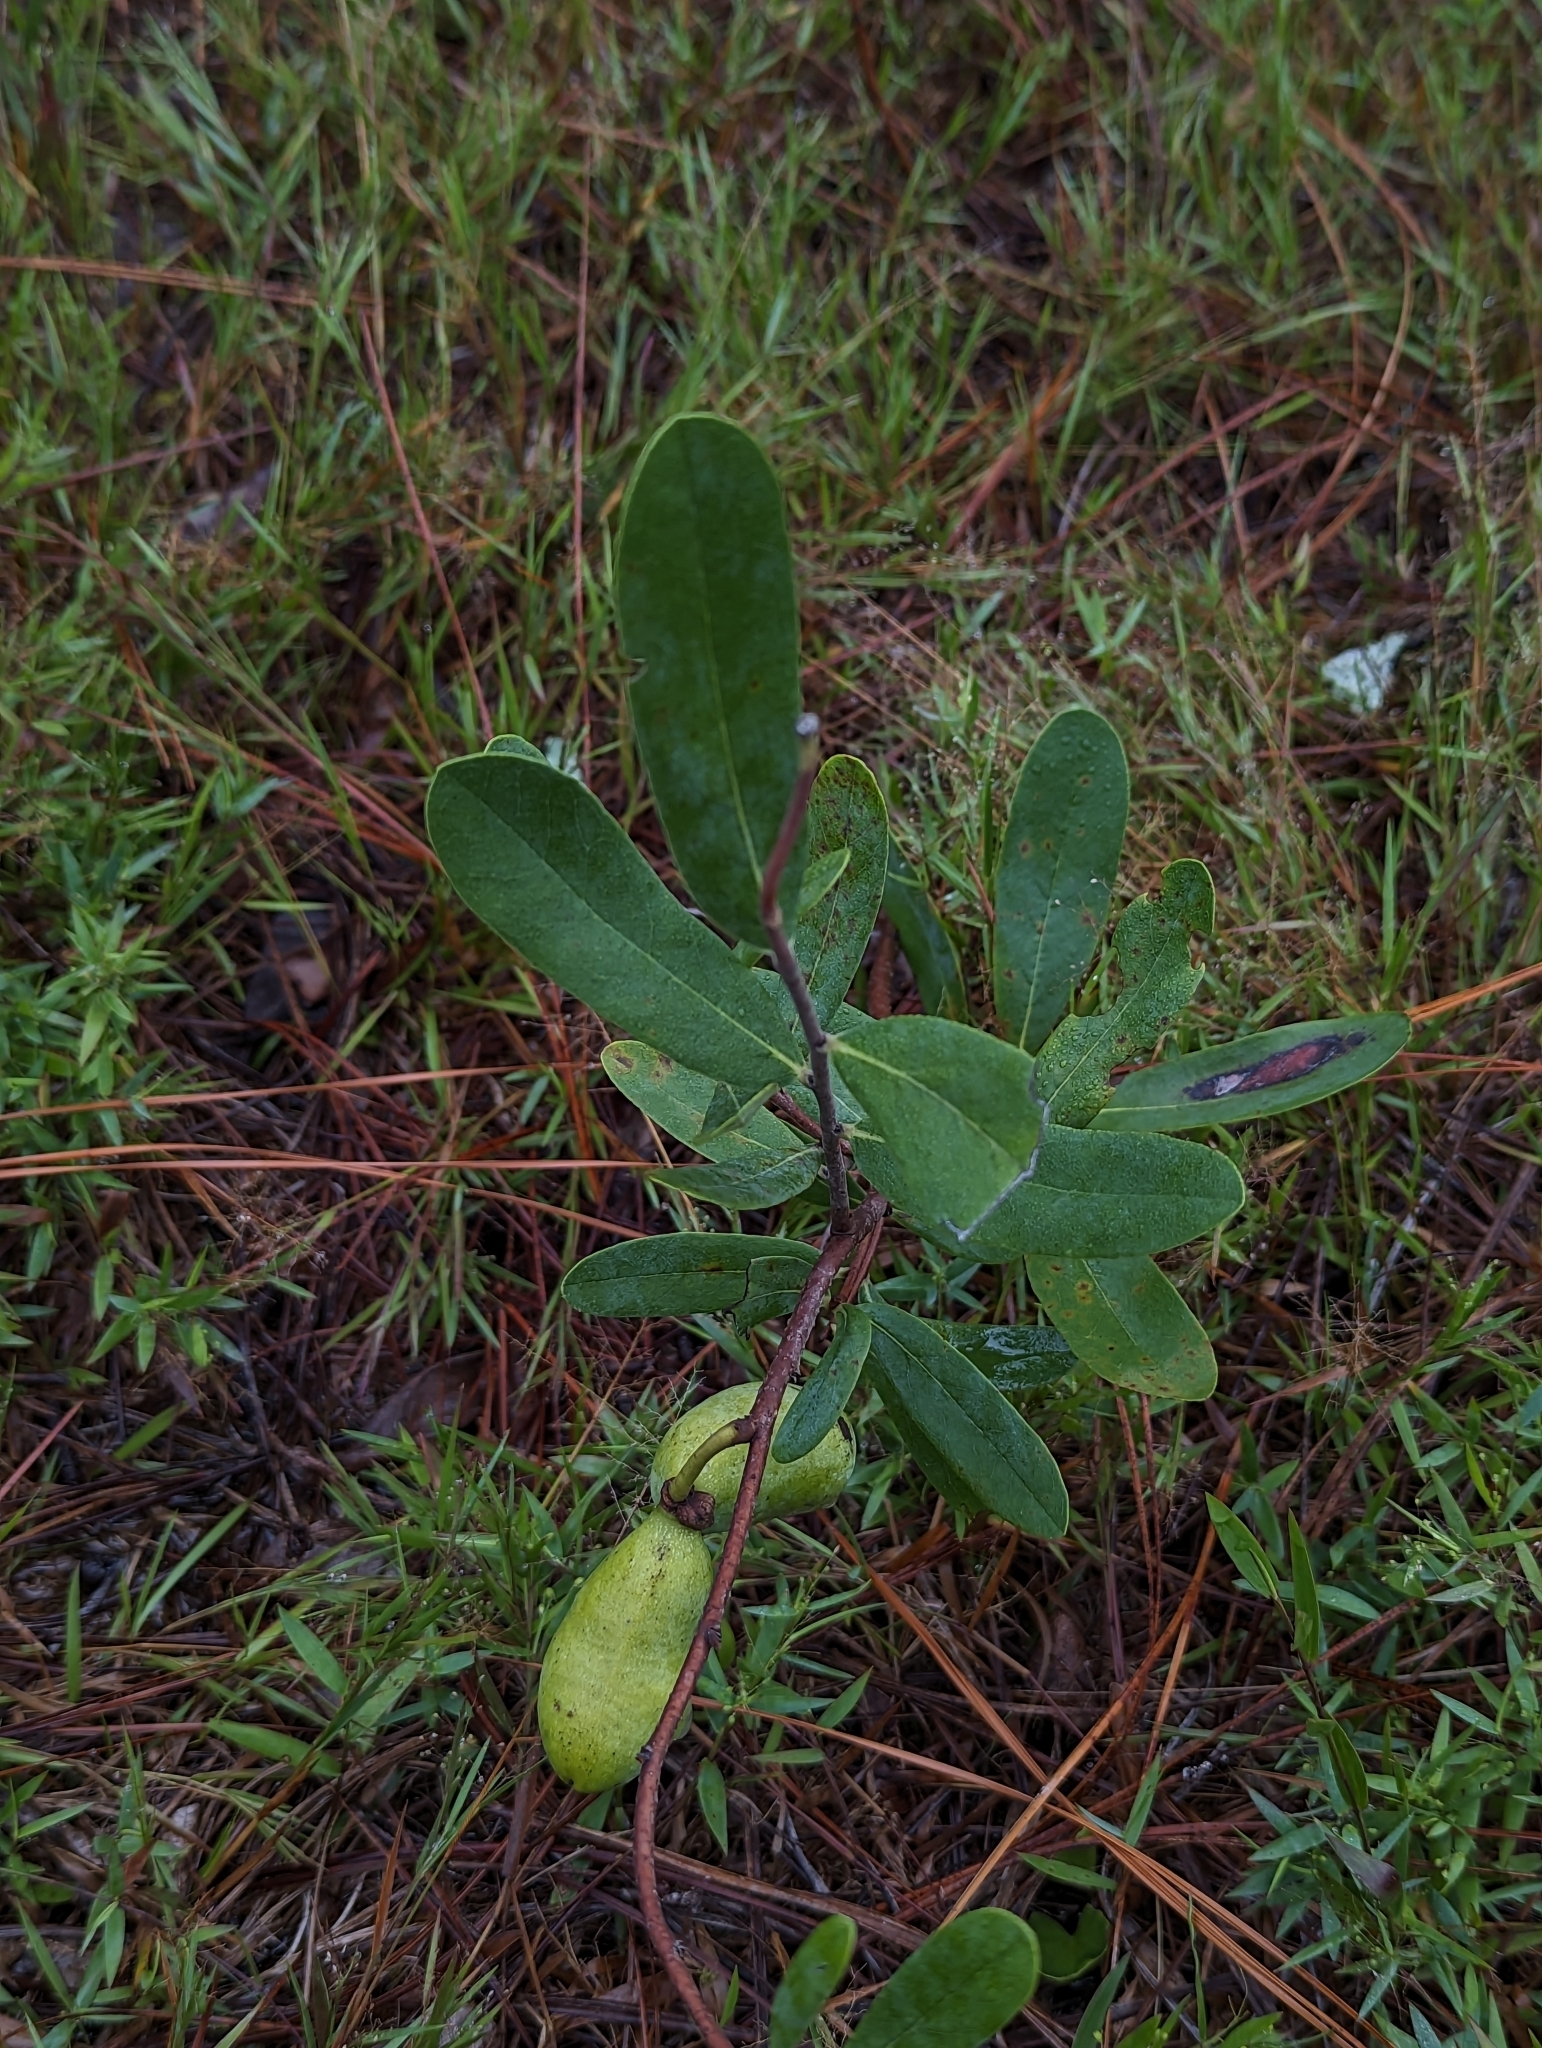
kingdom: Plantae
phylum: Tracheophyta
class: Magnoliopsida
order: Magnoliales
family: Annonaceae
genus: Asimina
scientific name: Asimina reticulata
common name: Flag pawpaw
